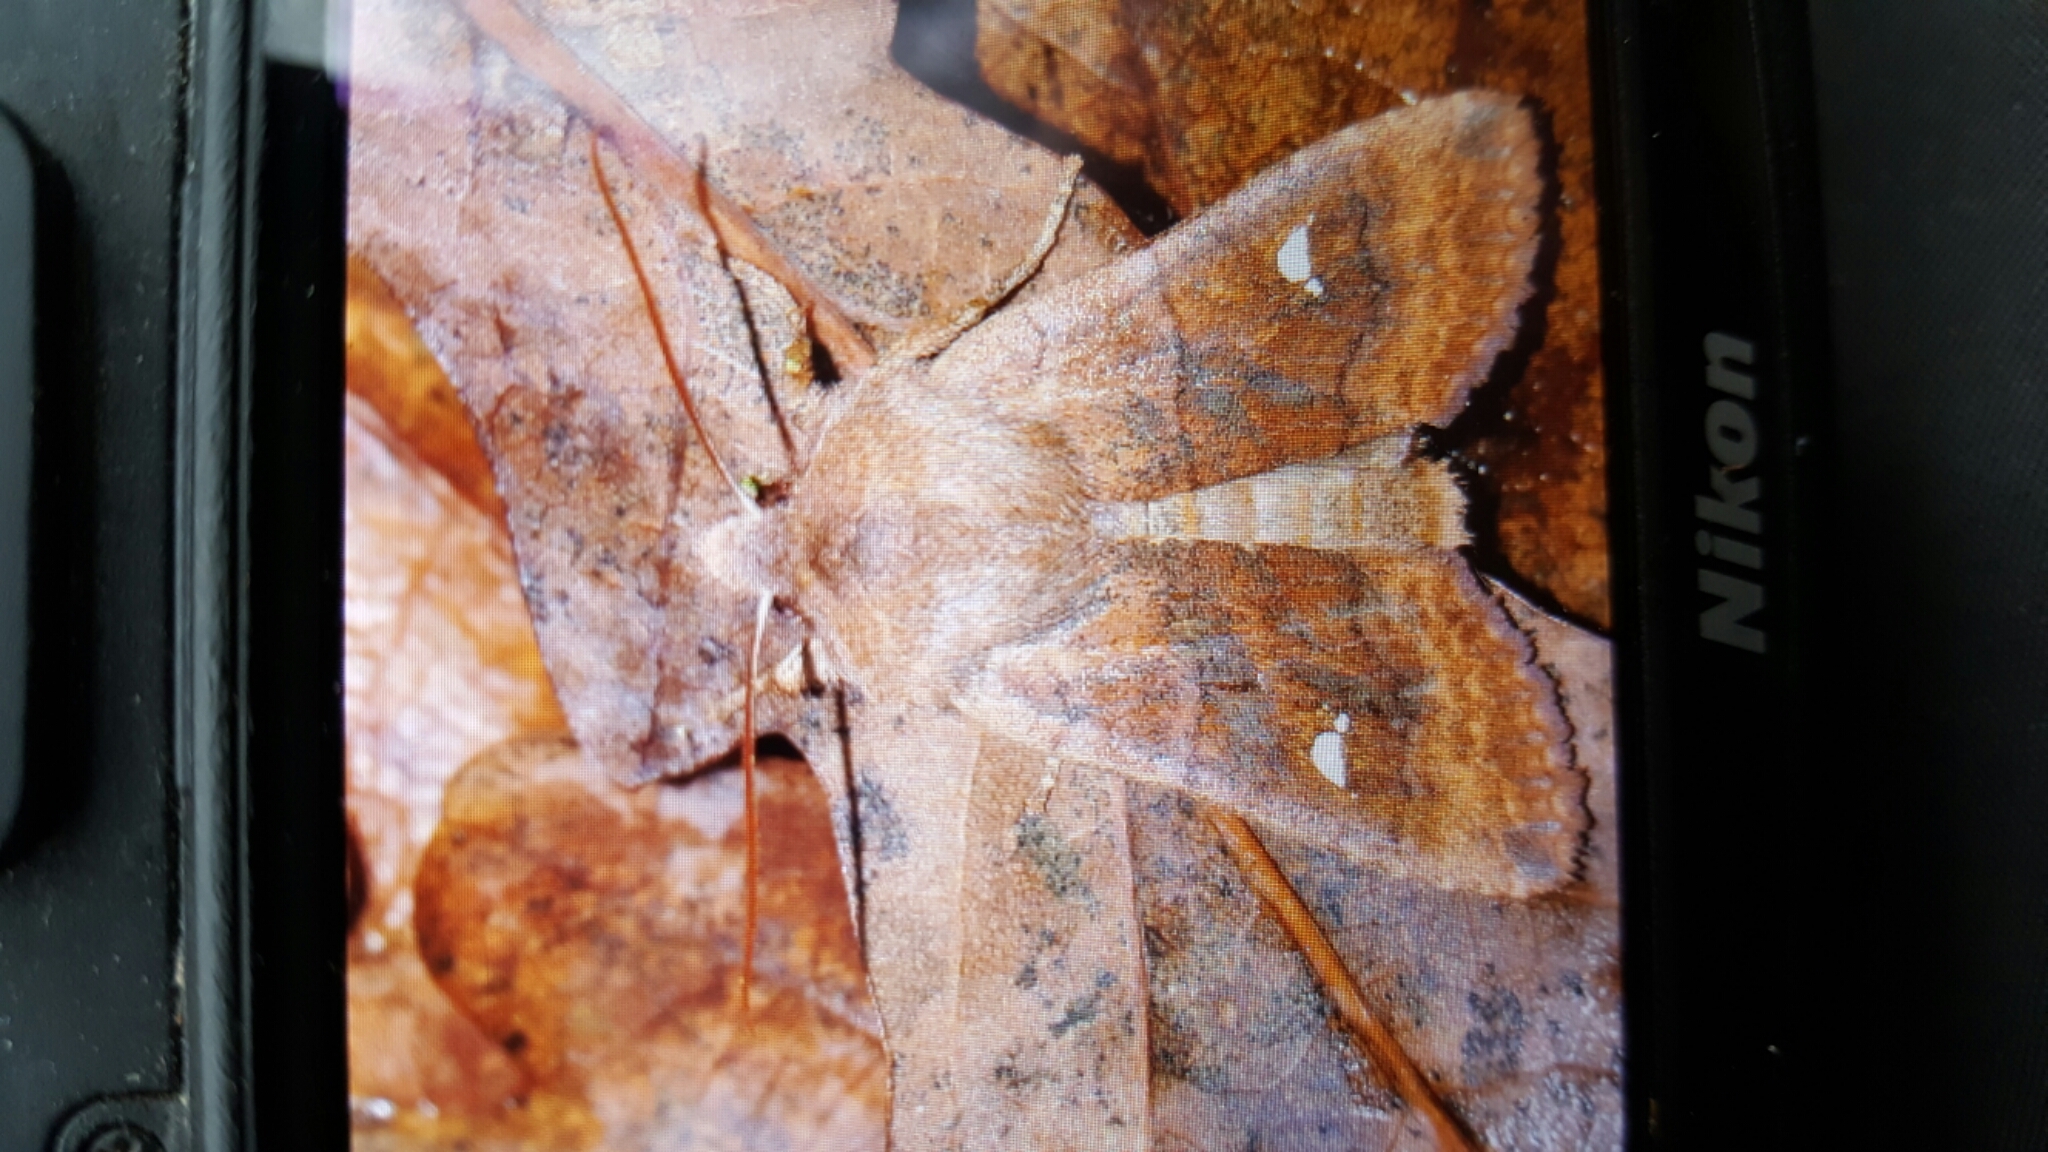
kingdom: Animalia
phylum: Arthropoda
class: Insecta
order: Lepidoptera
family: Noctuidae
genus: Eupsilia
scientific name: Eupsilia transversa
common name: Satellite
